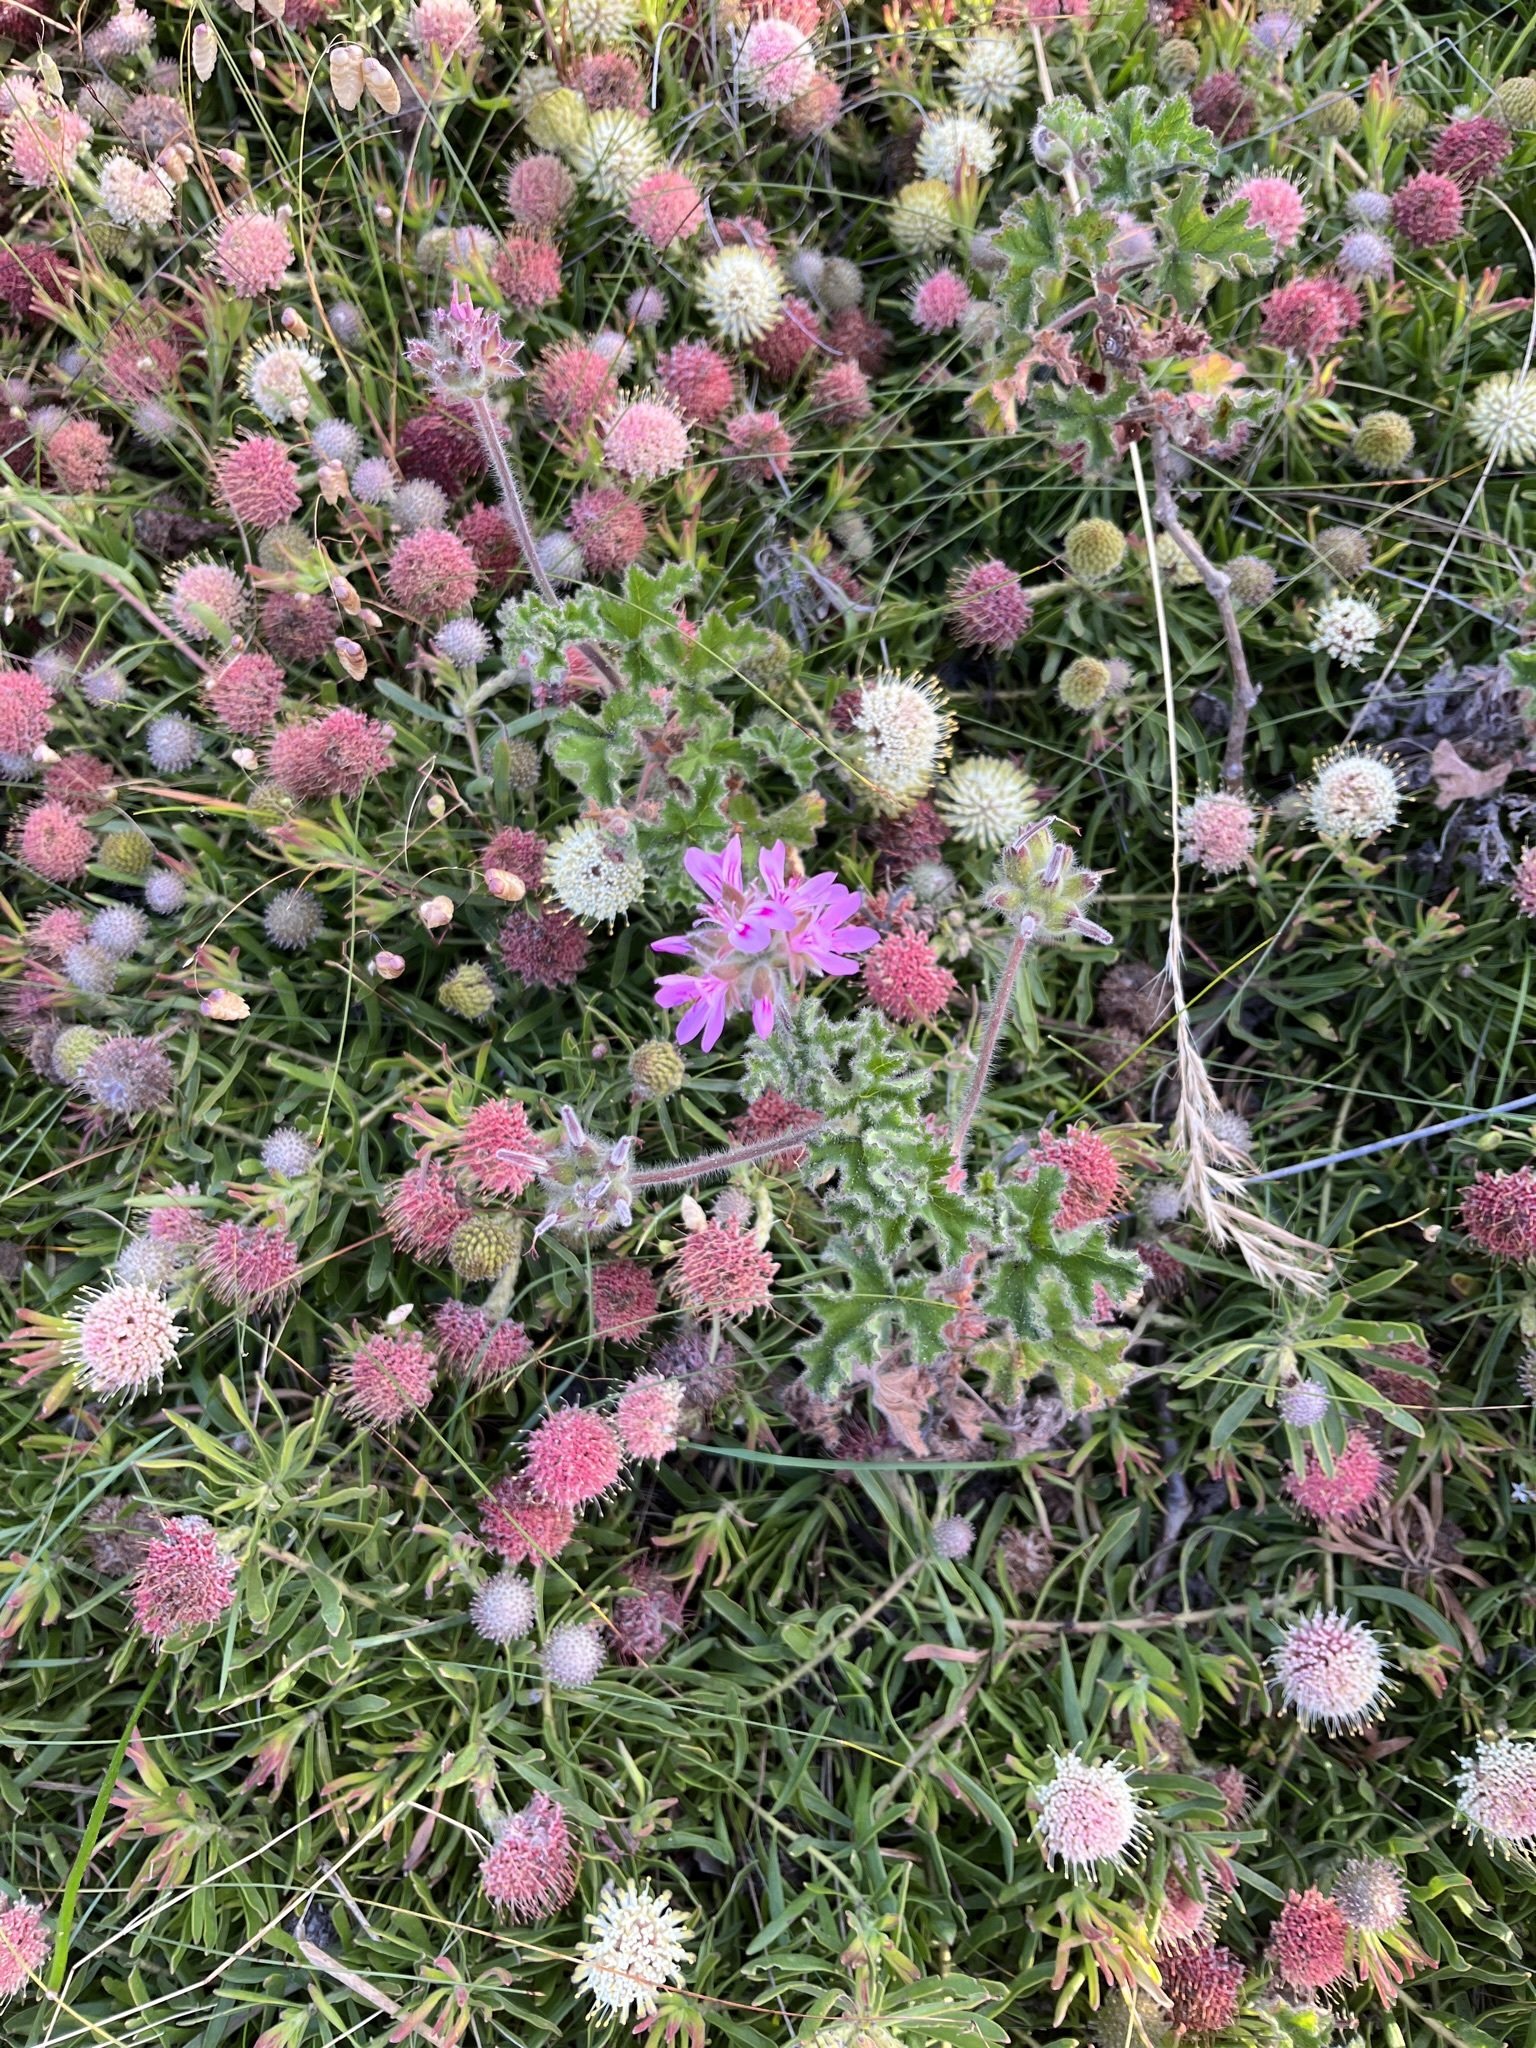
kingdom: Plantae
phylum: Tracheophyta
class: Magnoliopsida
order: Geraniales
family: Geraniaceae
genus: Pelargonium
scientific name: Pelargonium capitatum
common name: Rose scented geranium
